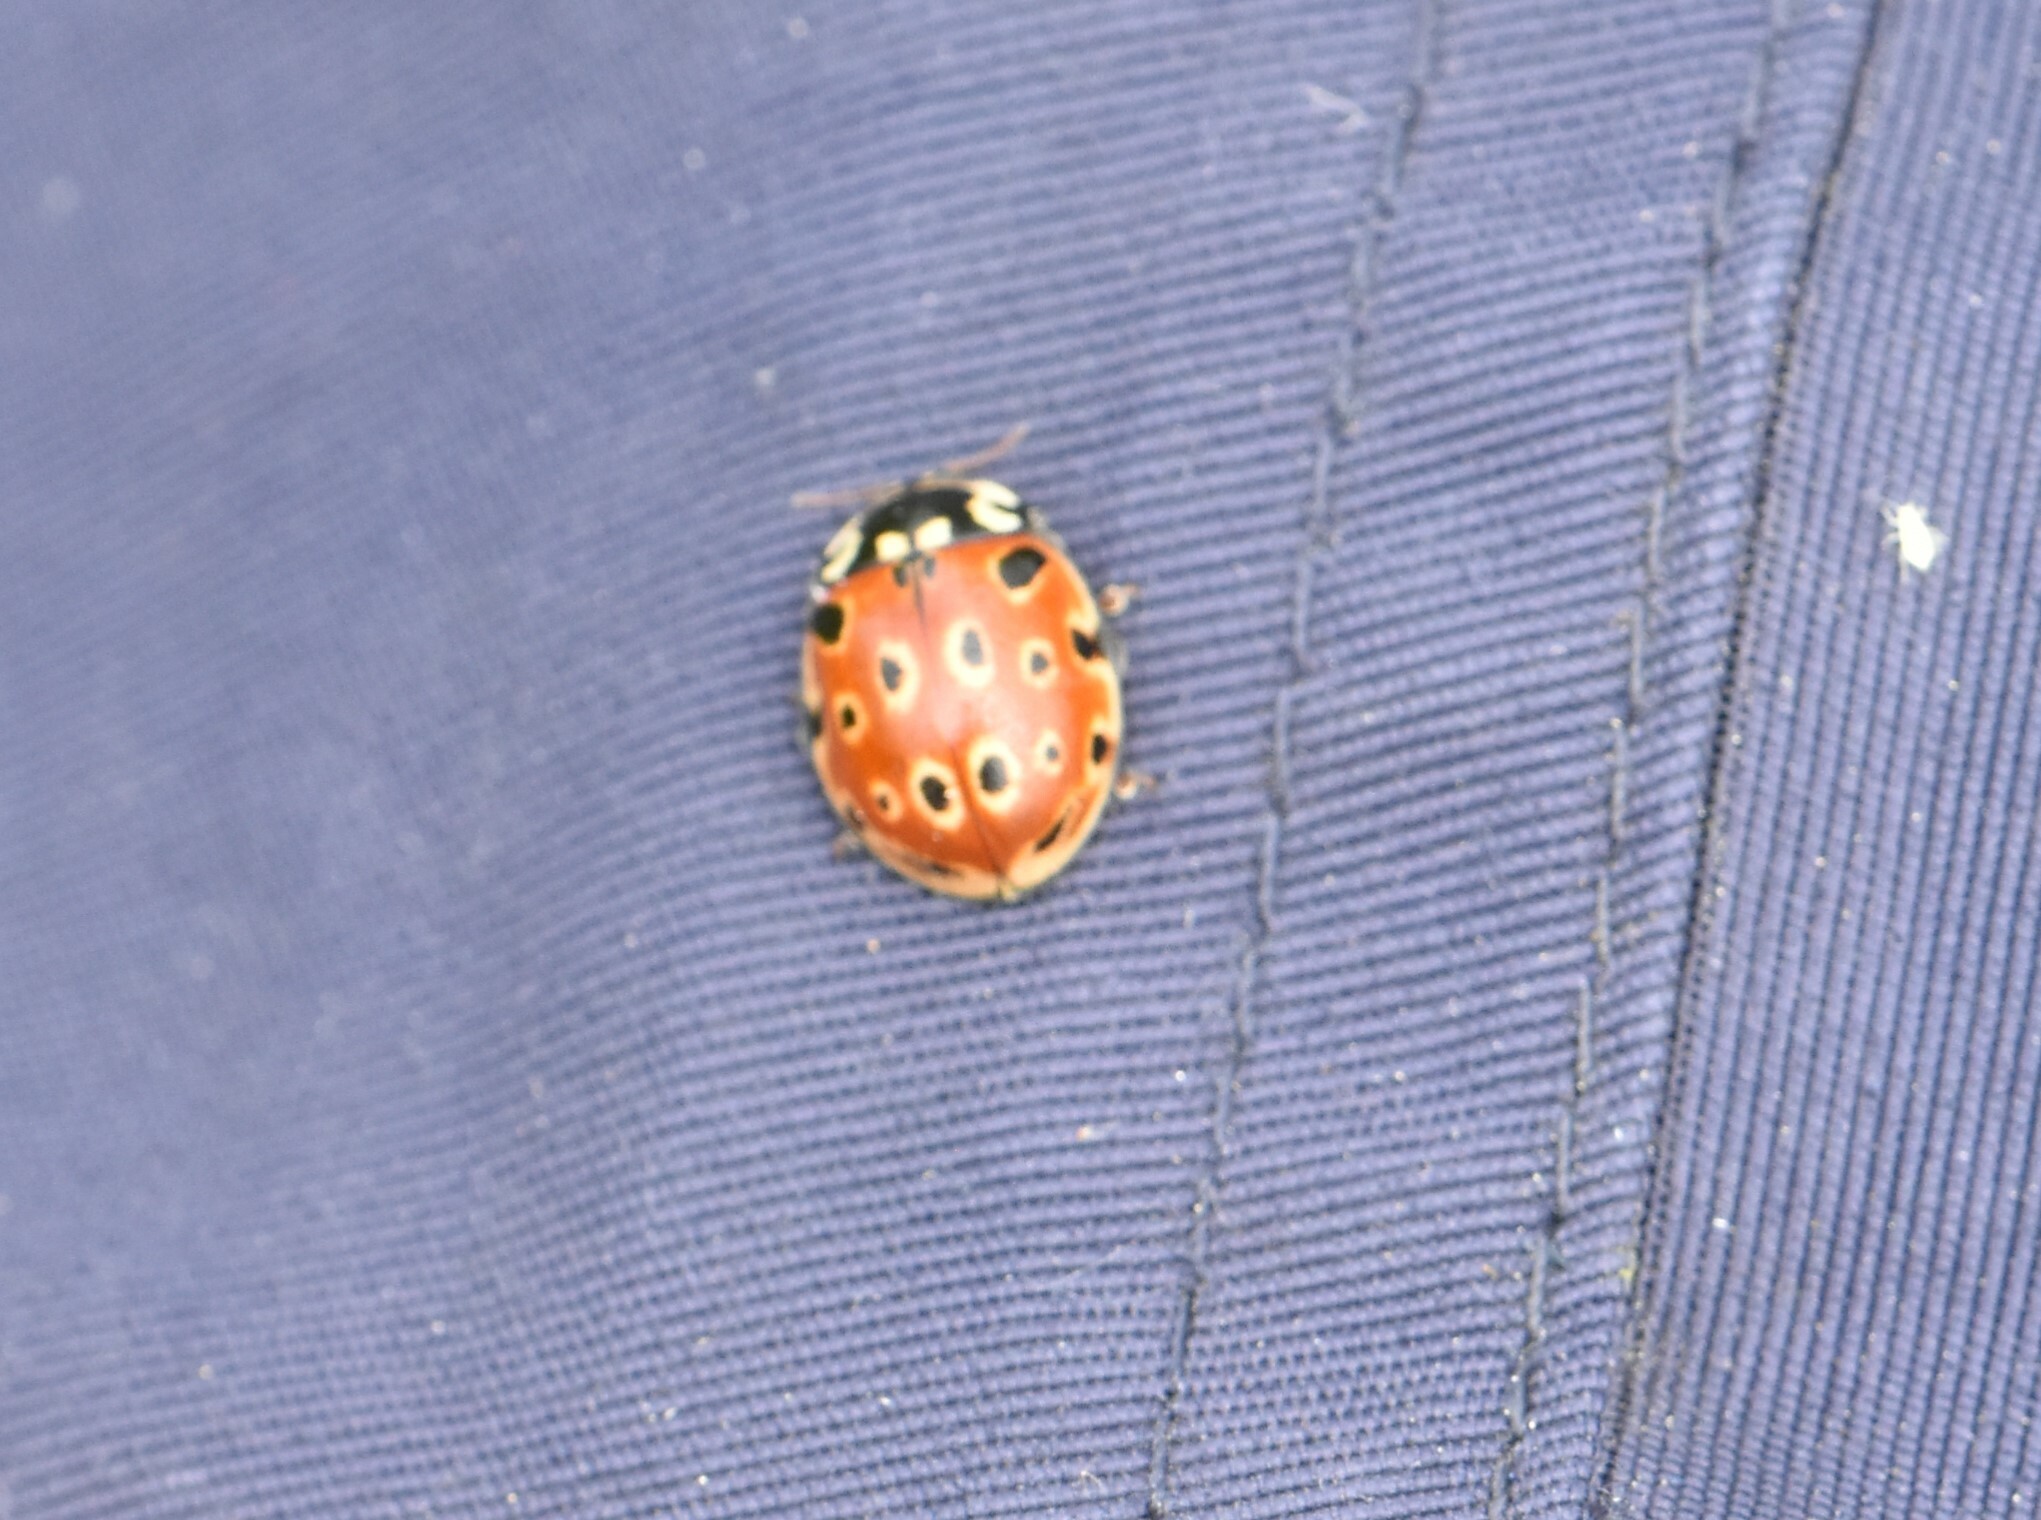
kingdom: Animalia
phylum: Arthropoda
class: Insecta
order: Coleoptera
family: Coccinellidae
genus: Anatis
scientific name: Anatis ocellata
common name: Eyed ladybird
